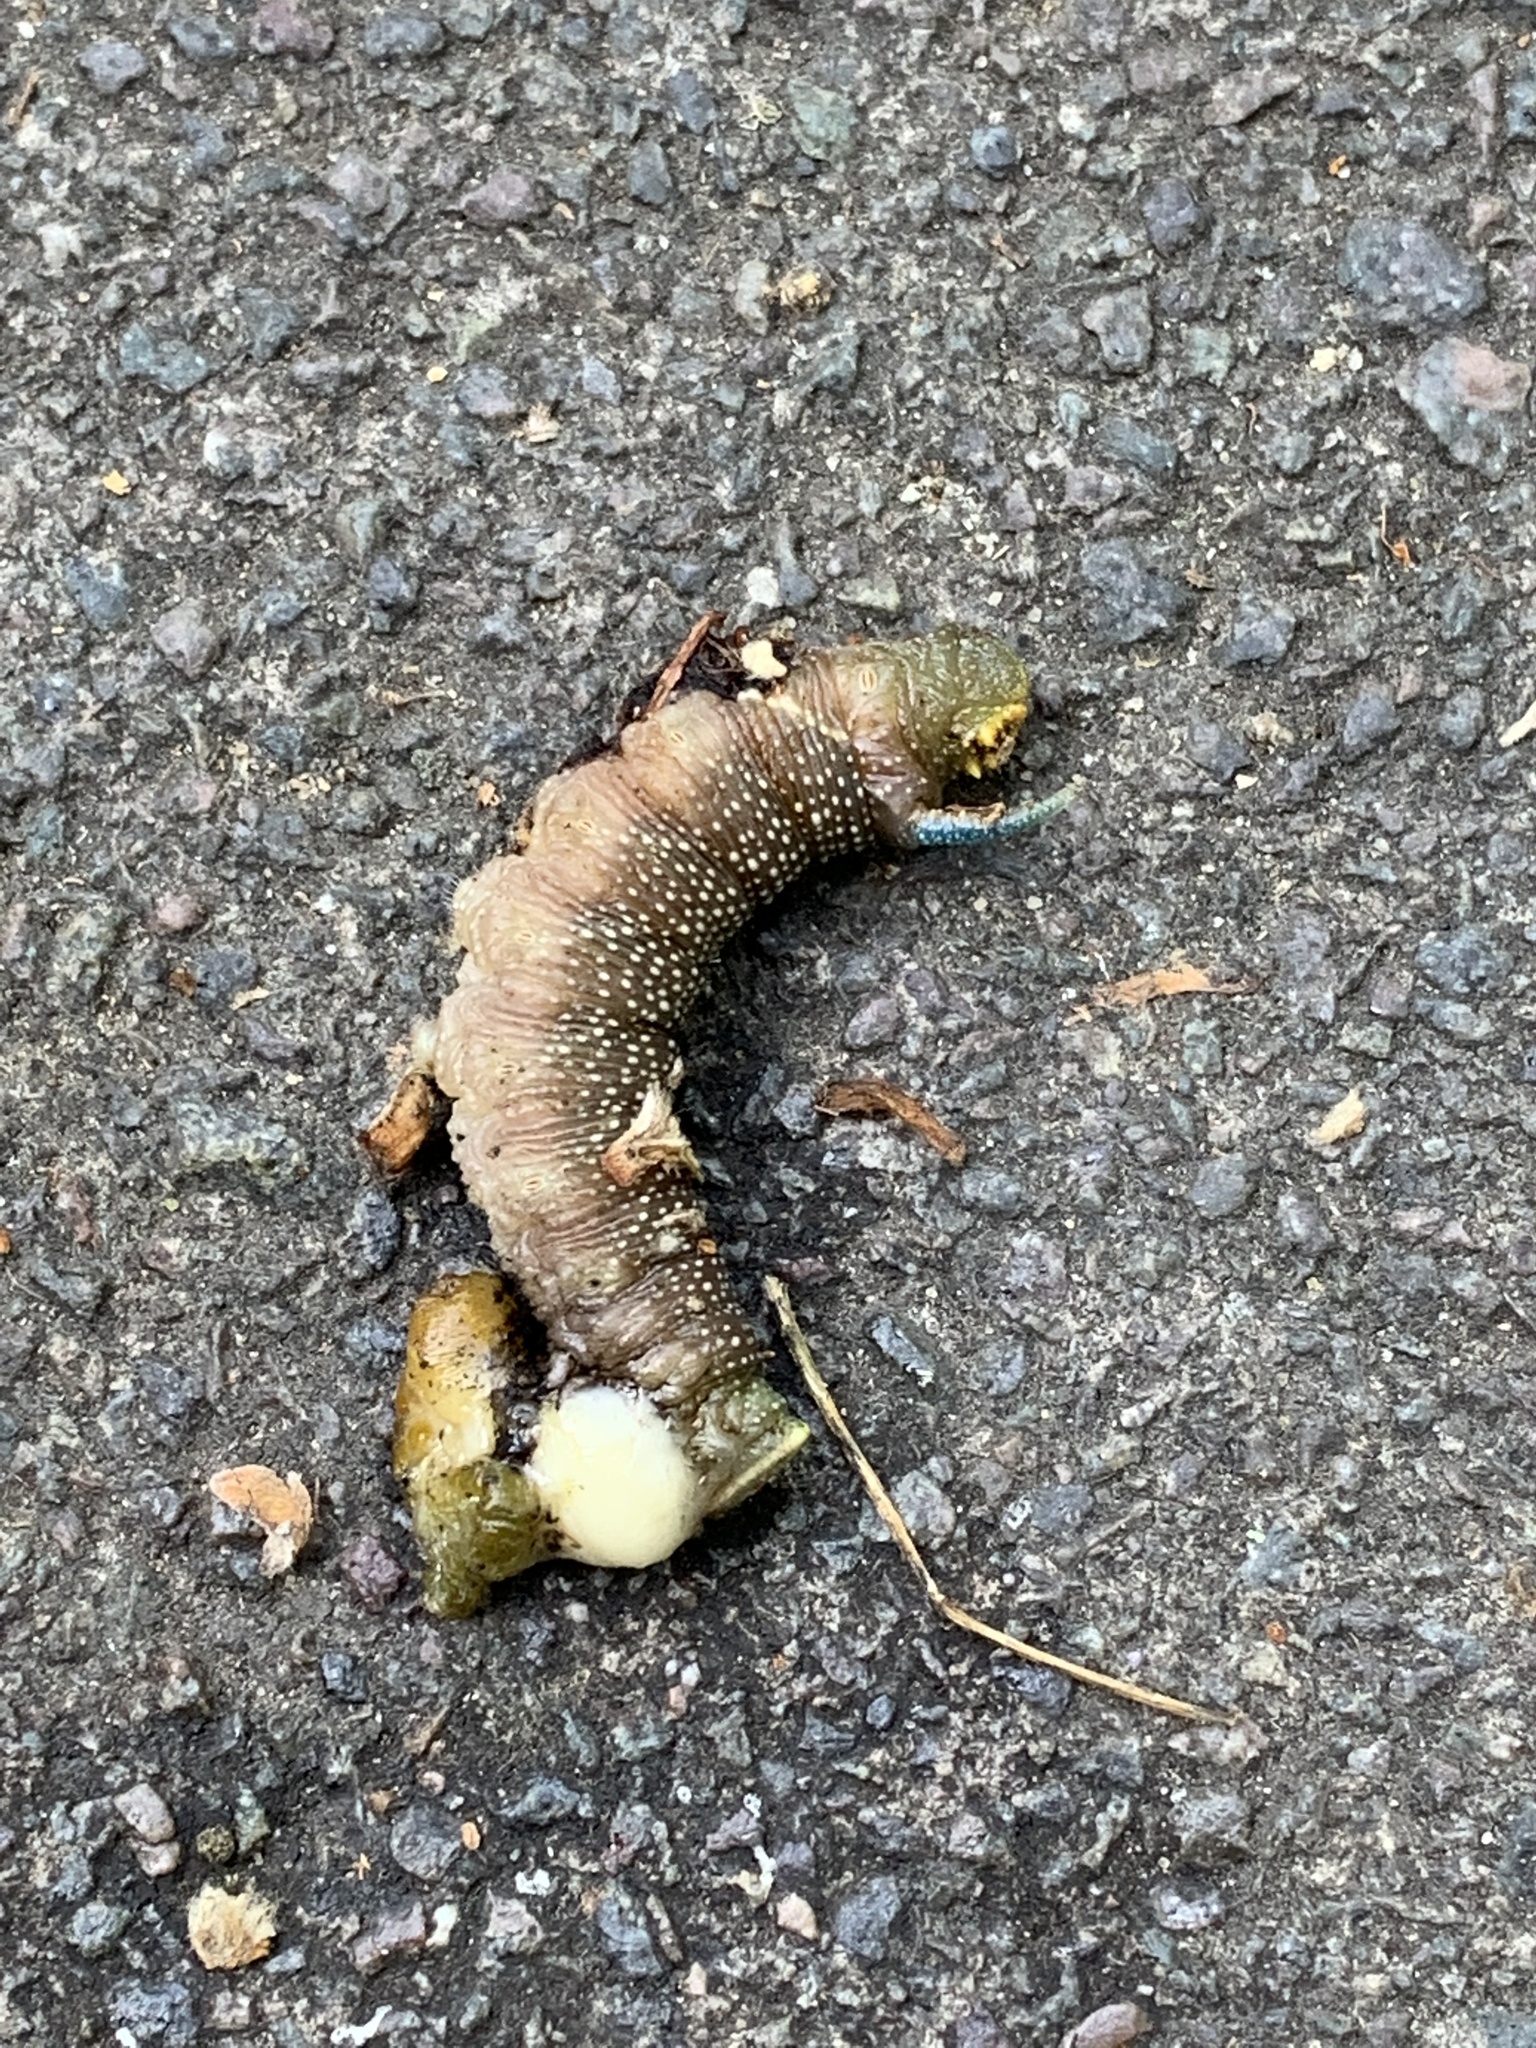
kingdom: Animalia
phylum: Arthropoda
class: Insecta
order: Lepidoptera
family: Sphingidae
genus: Mimas
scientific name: Mimas tiliae
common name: Lime hawk-moth
